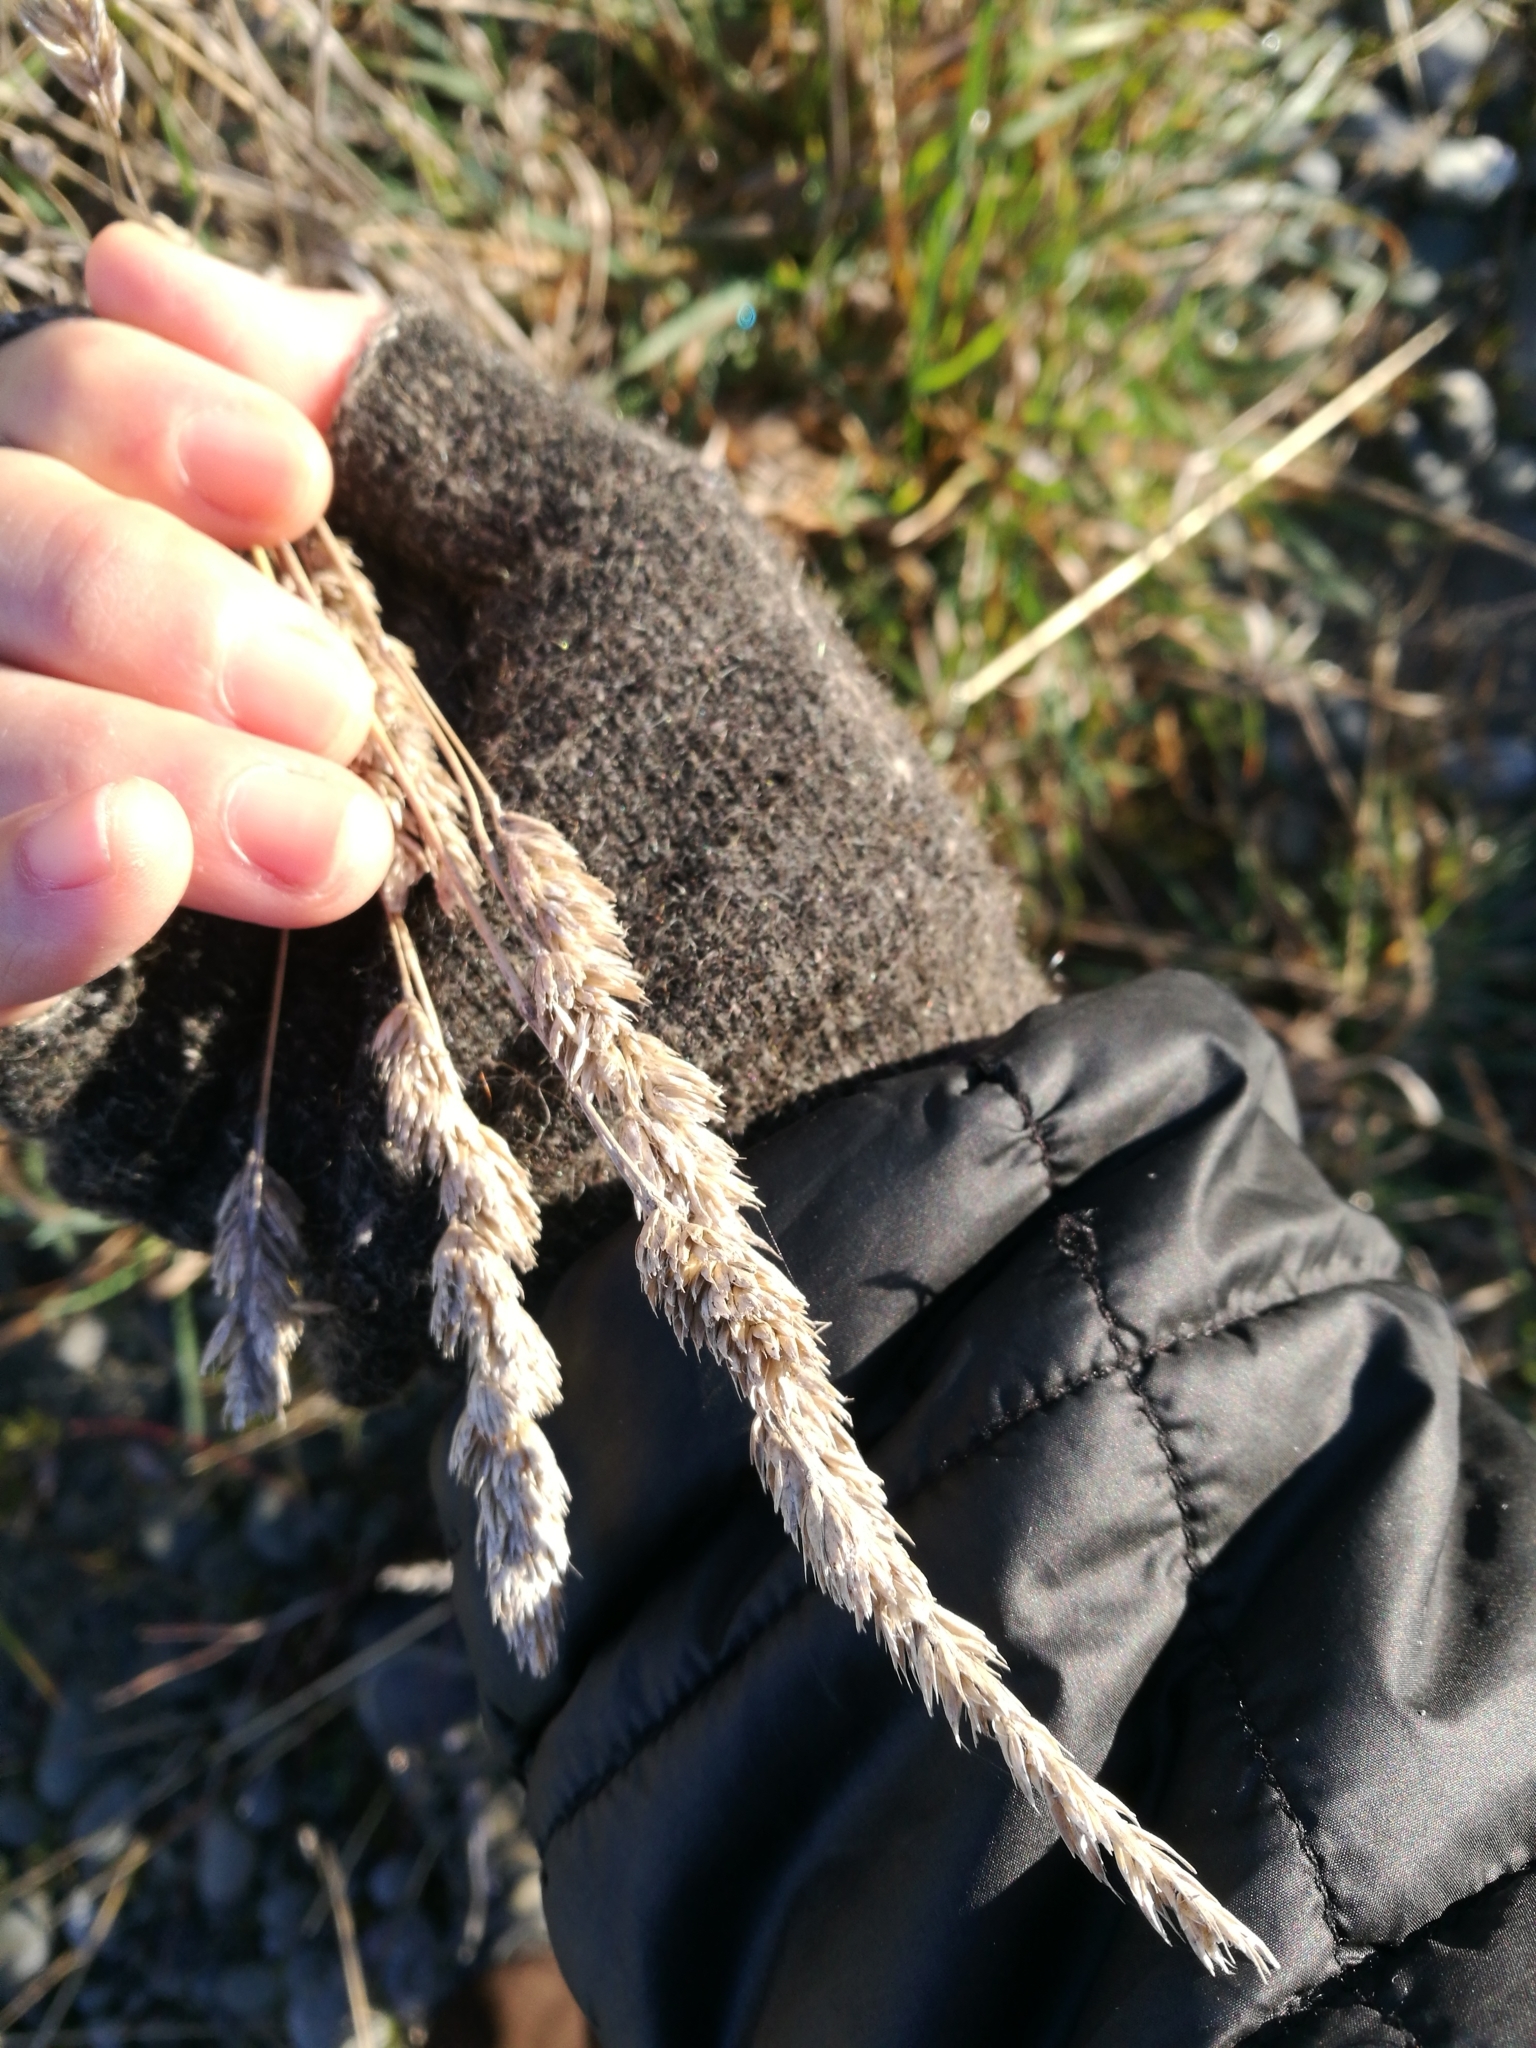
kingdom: Plantae
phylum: Tracheophyta
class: Liliopsida
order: Poales
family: Poaceae
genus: Dactylis
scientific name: Dactylis glomerata
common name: Orchardgrass
